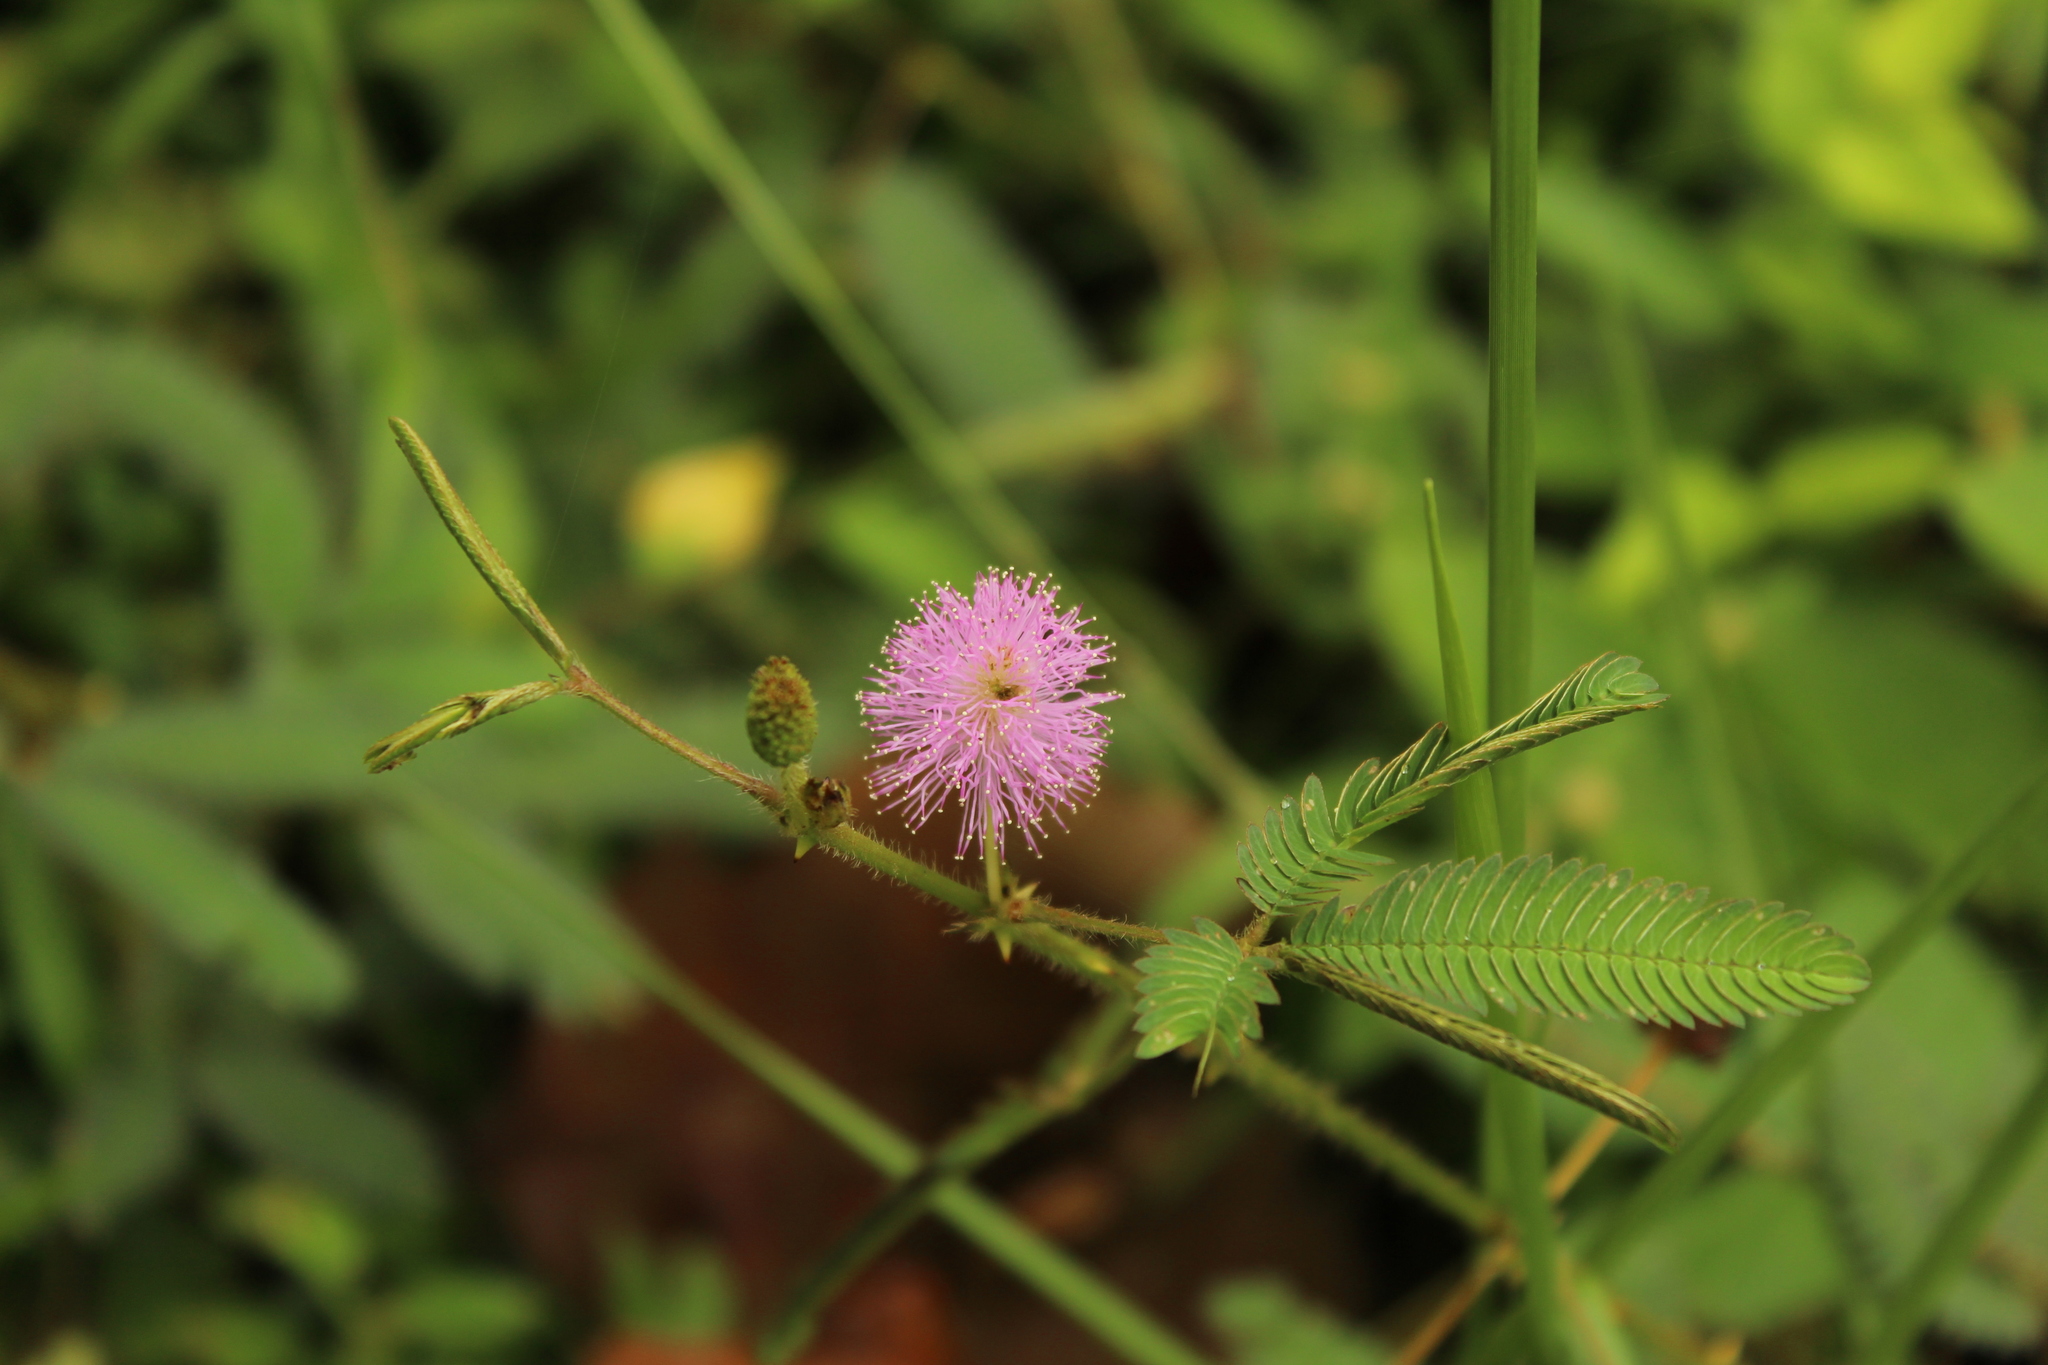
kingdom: Plantae
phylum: Tracheophyta
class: Magnoliopsida
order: Fabales
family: Fabaceae
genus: Mimosa
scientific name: Mimosa pudica
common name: Sensitive plant
